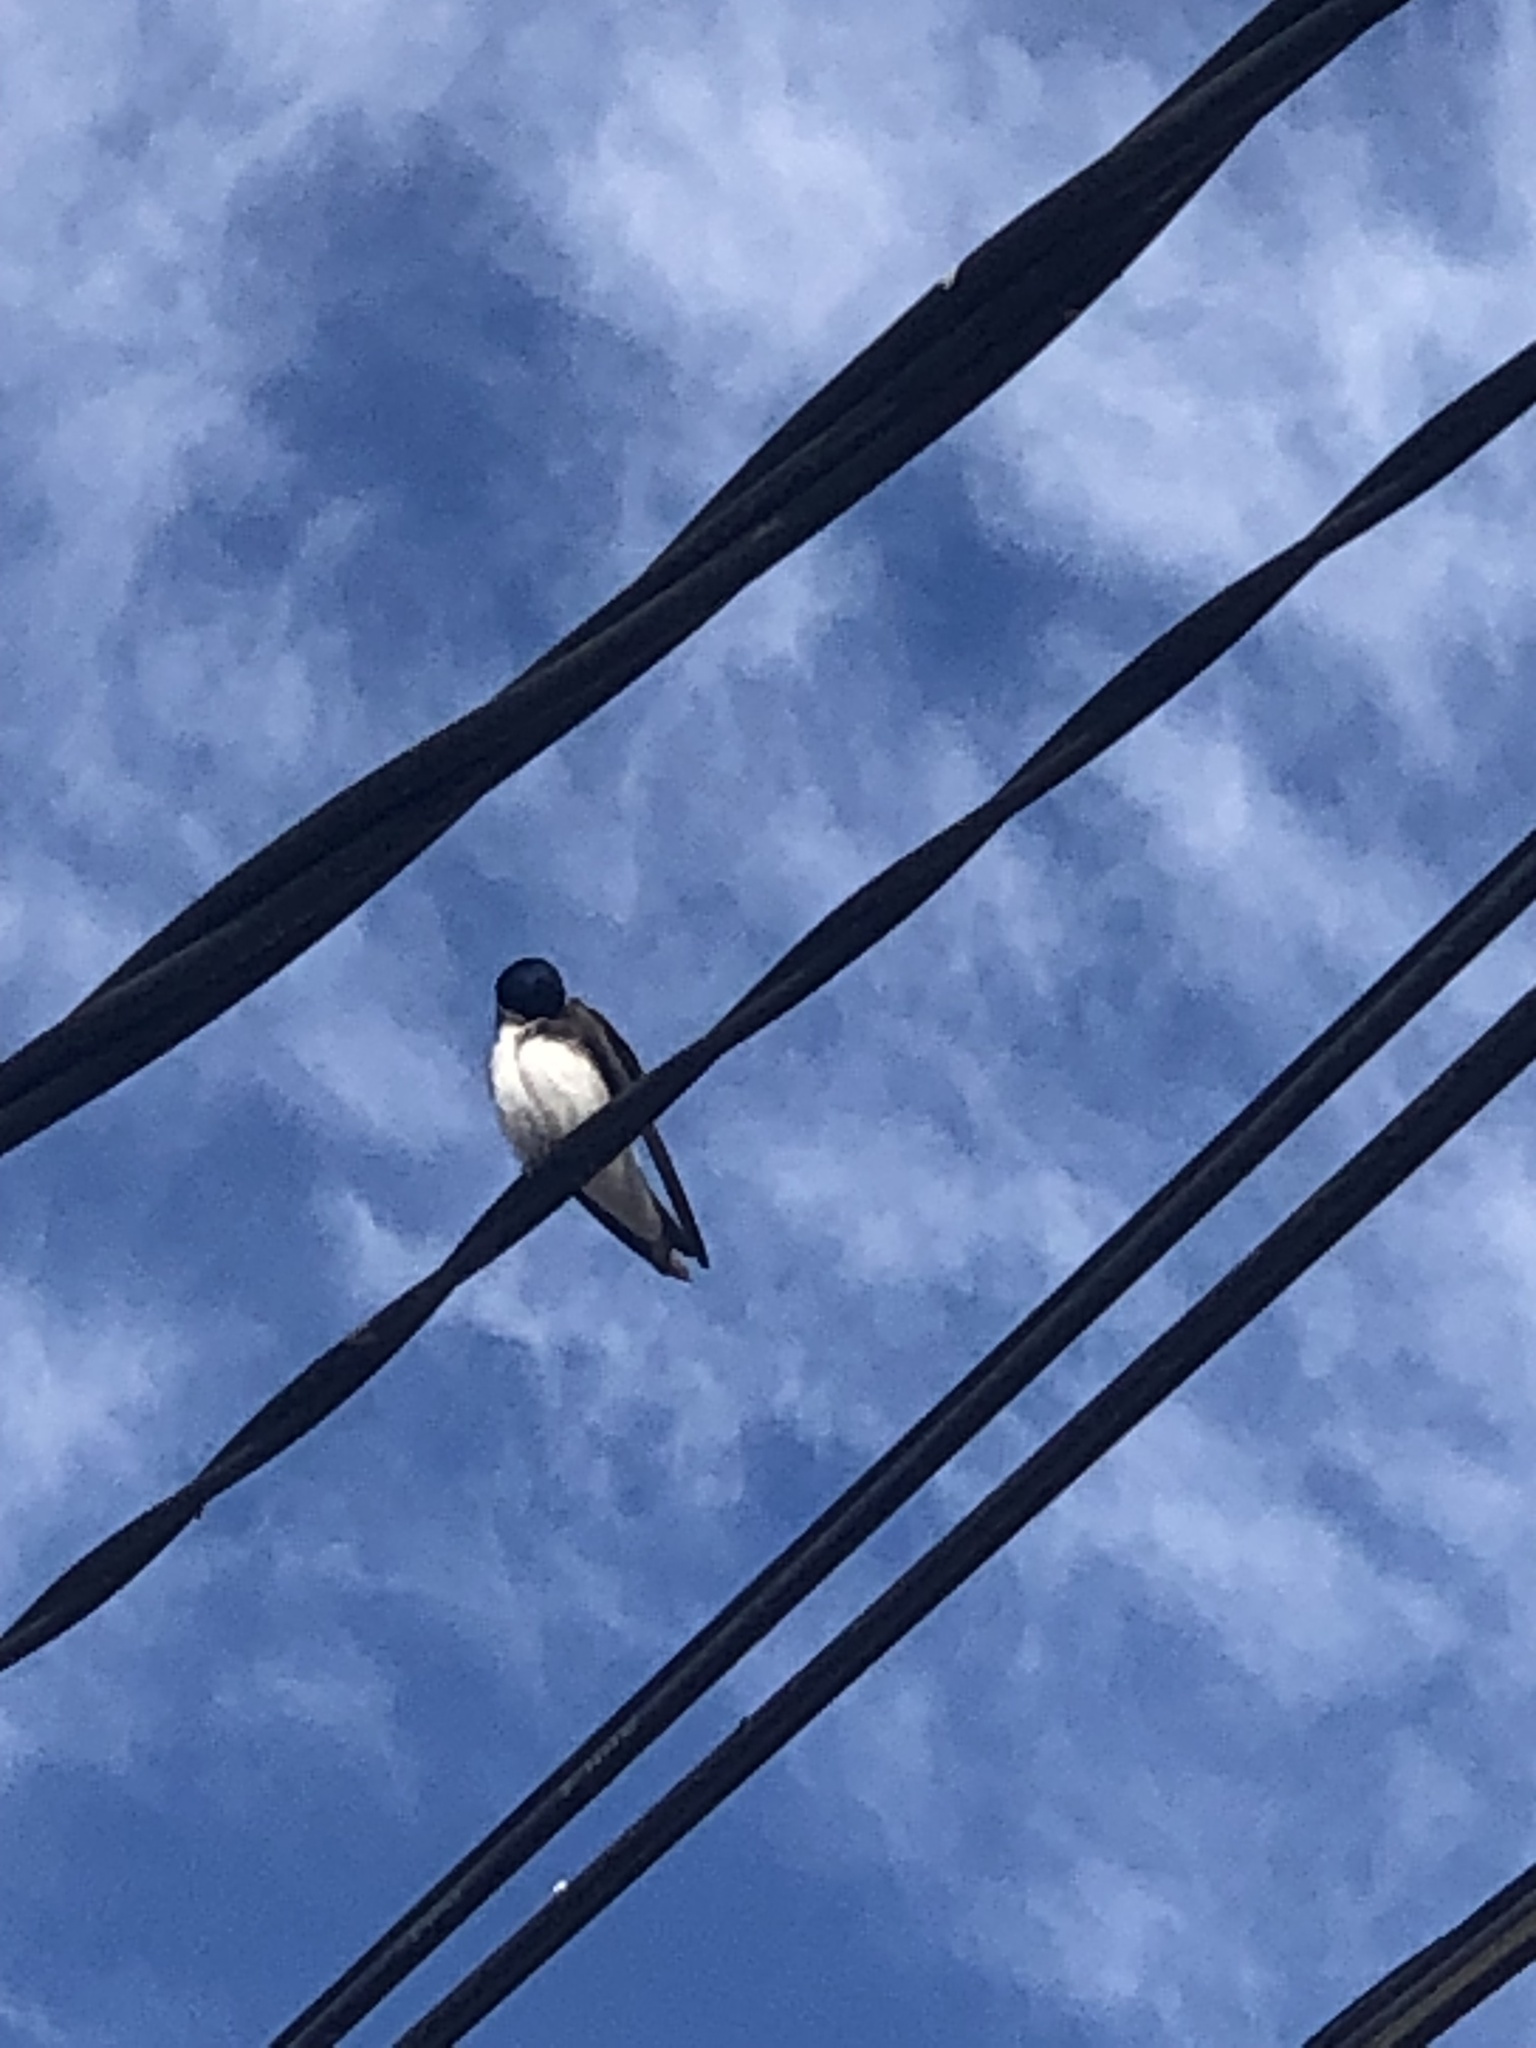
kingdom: Animalia
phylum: Chordata
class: Aves
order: Passeriformes
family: Hirundinidae
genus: Tachycineta
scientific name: Tachycineta leucopyga
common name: Chilean swallow
